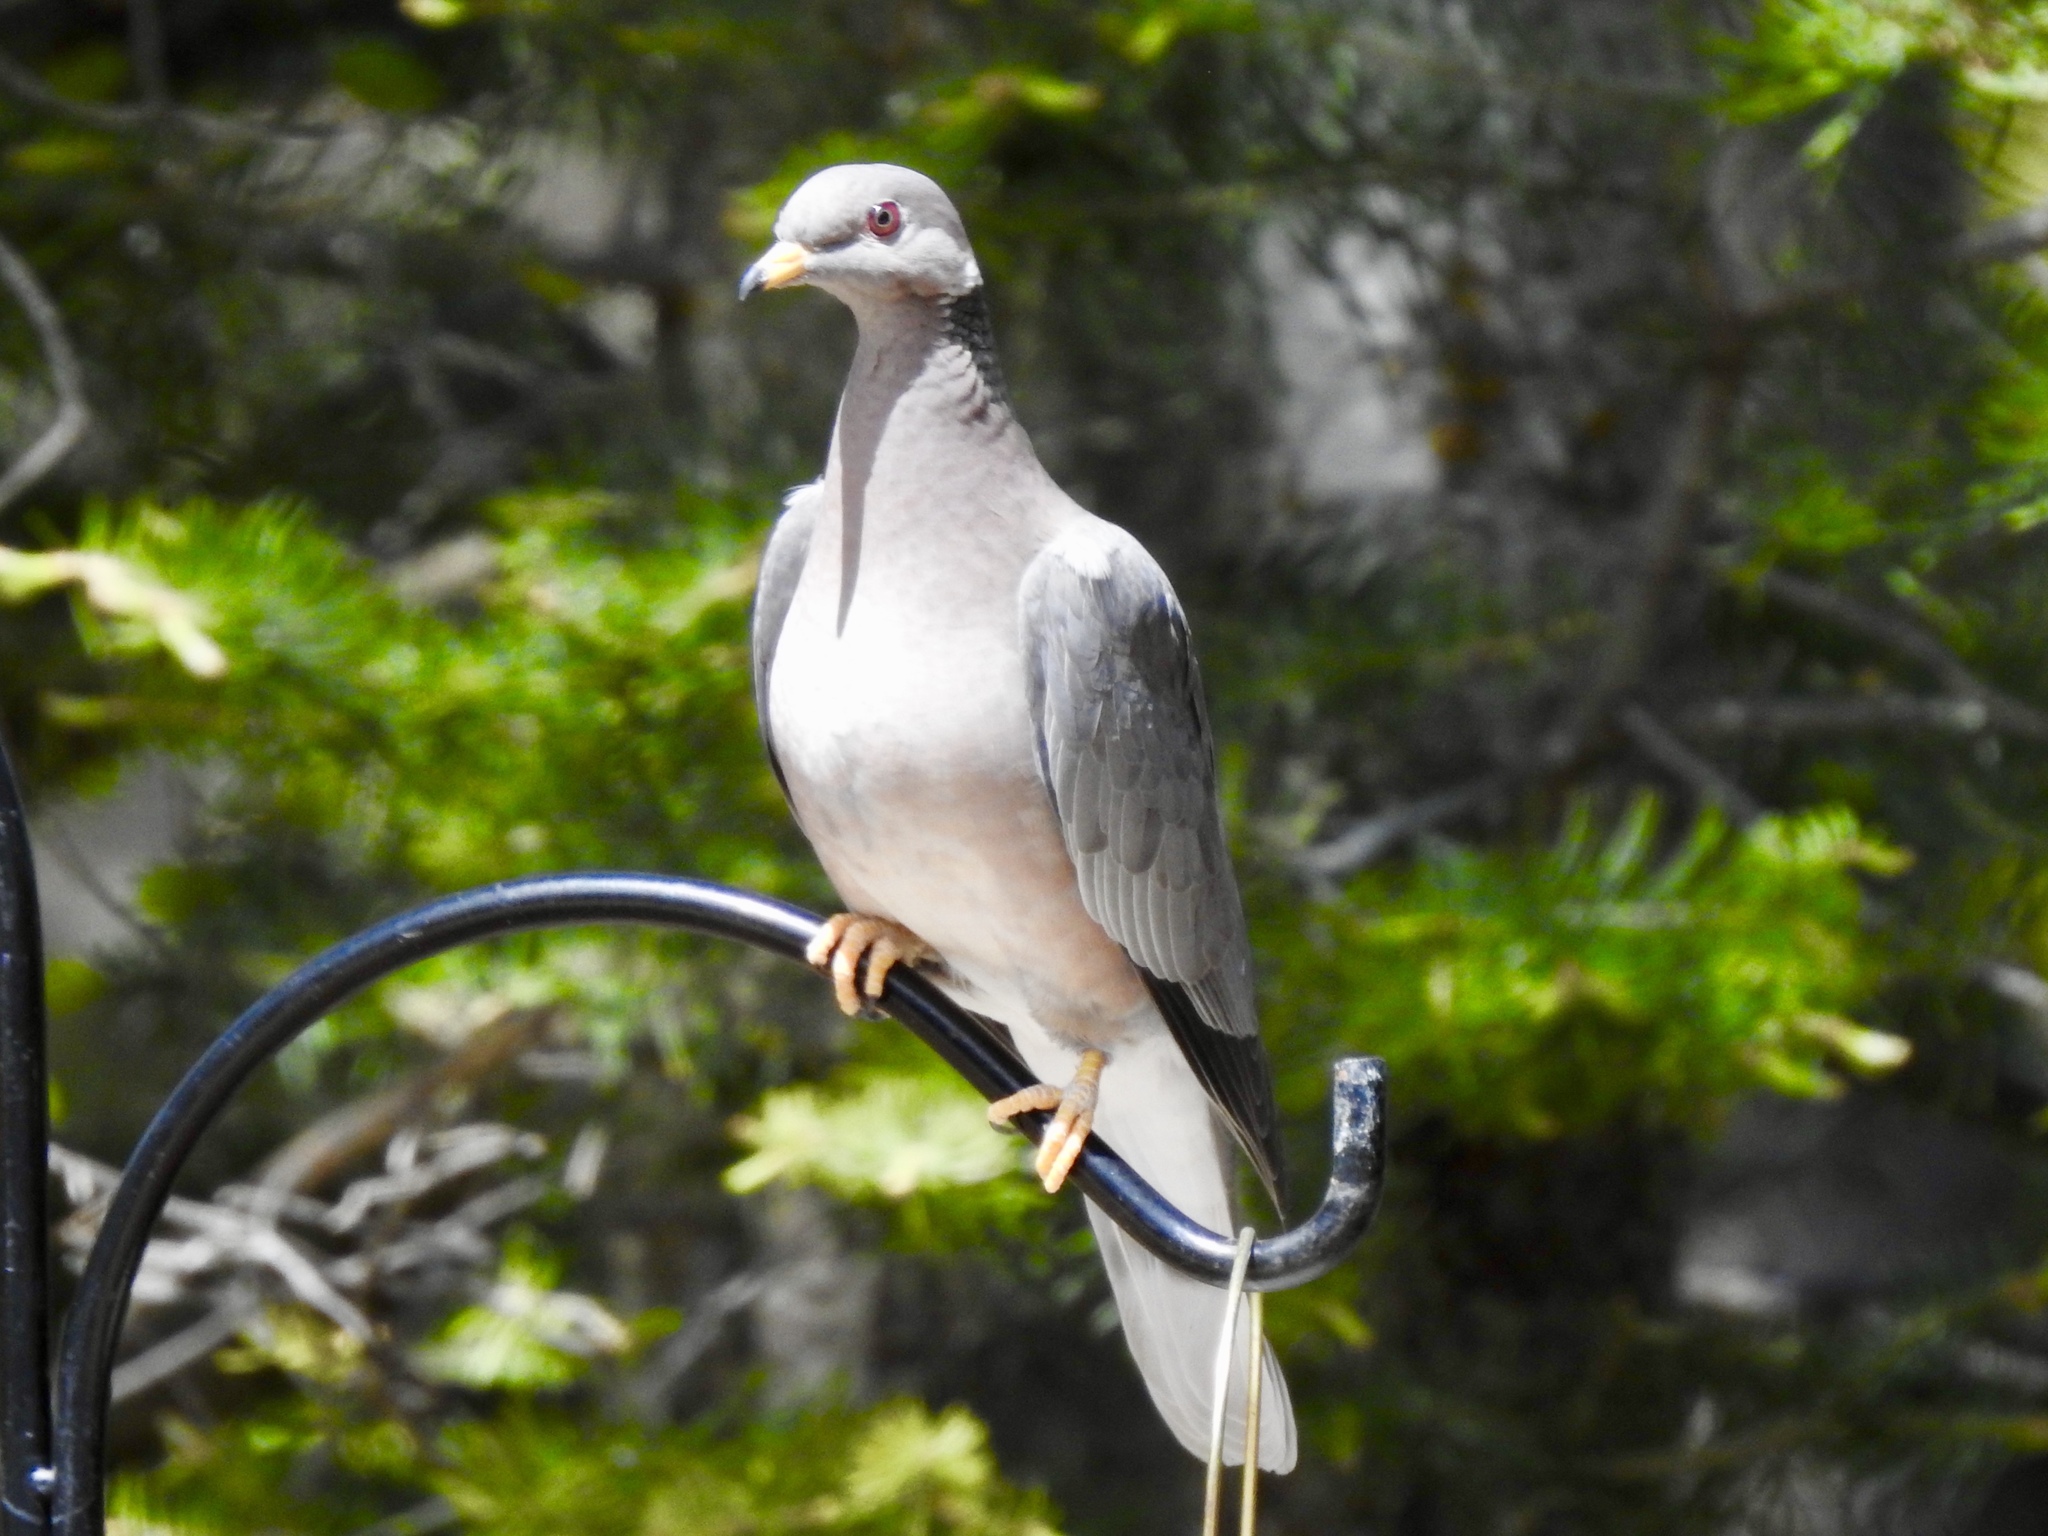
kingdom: Animalia
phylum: Chordata
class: Aves
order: Columbiformes
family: Columbidae
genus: Patagioenas
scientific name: Patagioenas fasciata
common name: Band-tailed pigeon
